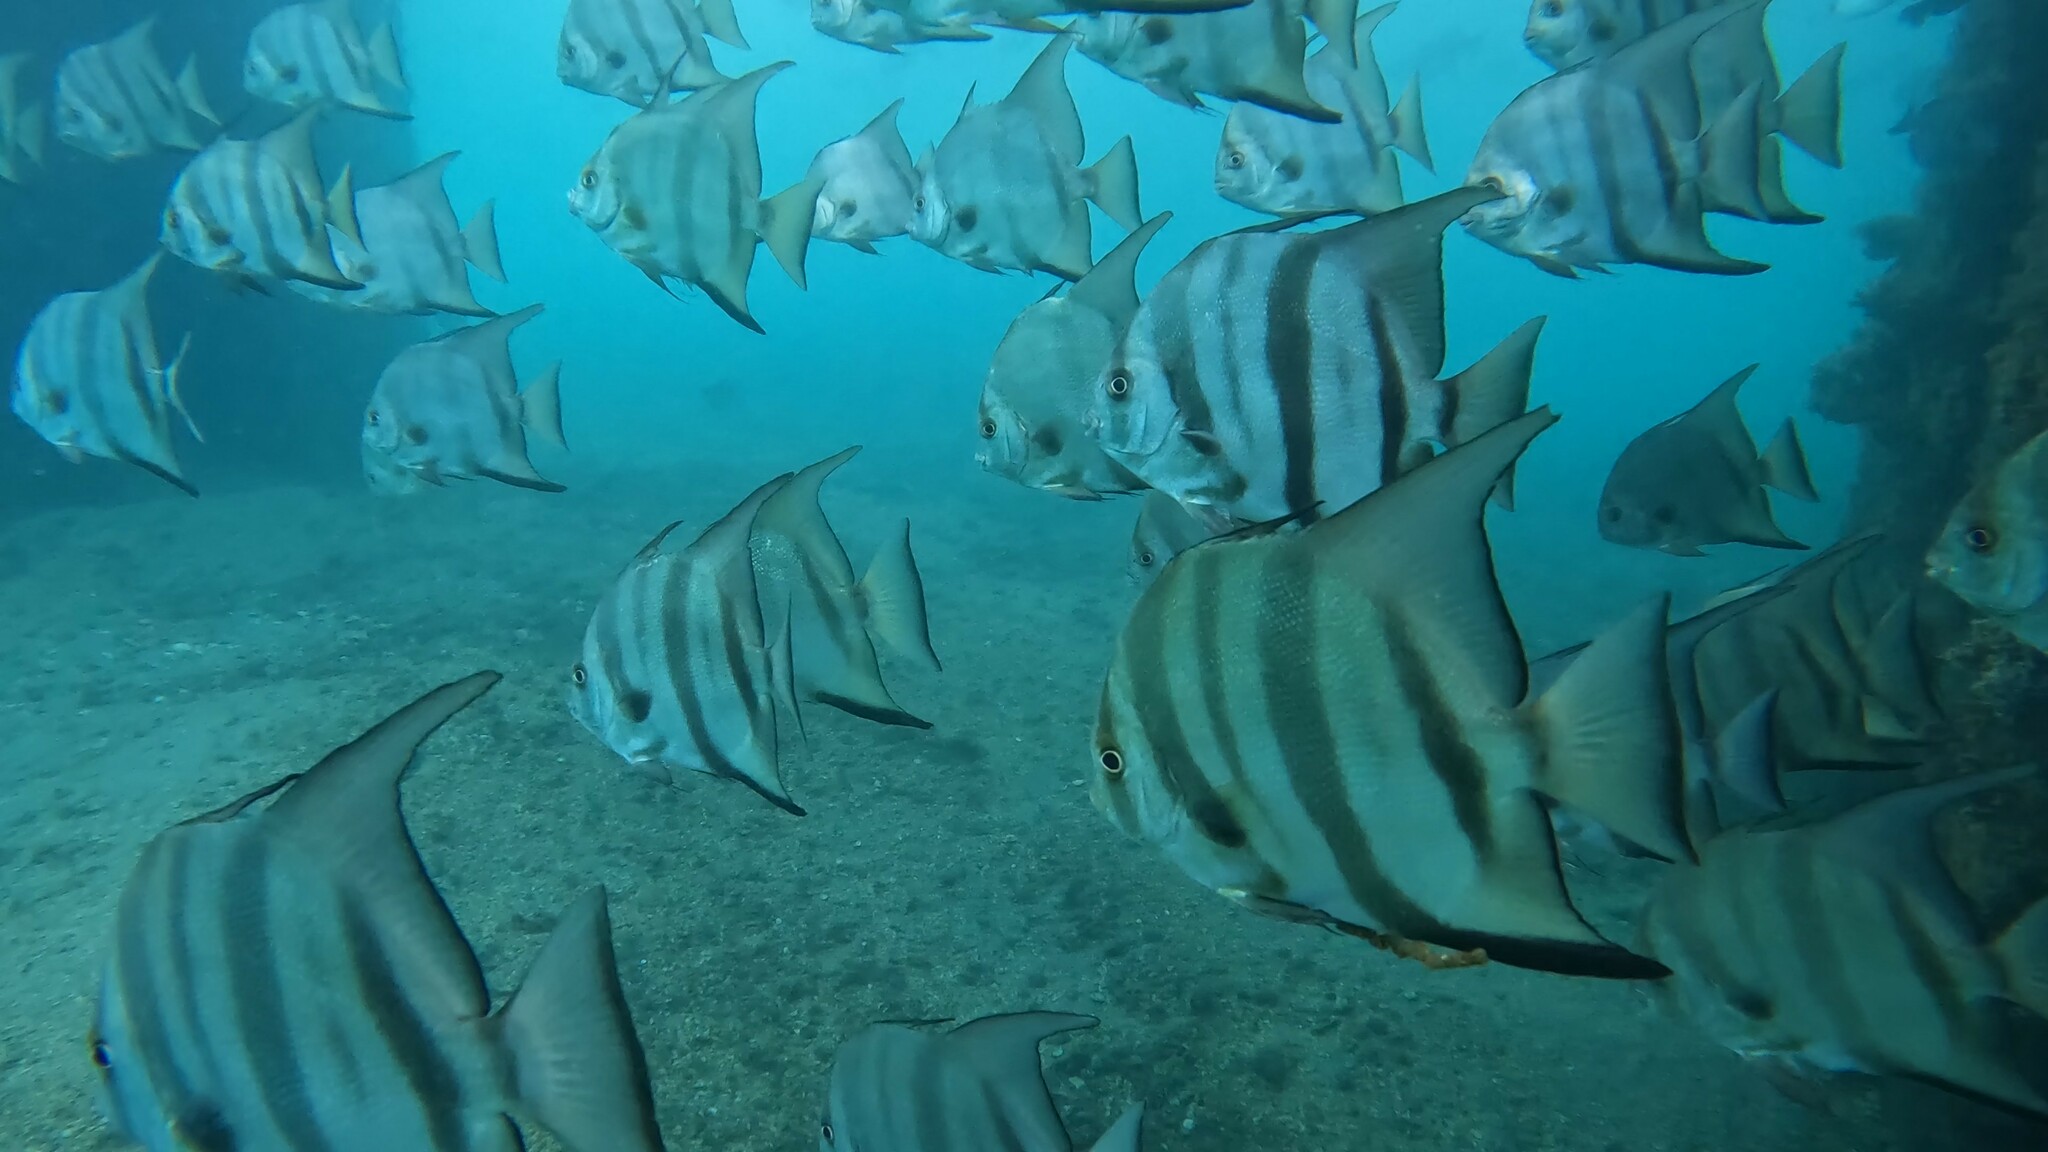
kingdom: Animalia
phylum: Chordata
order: Perciformes
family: Ephippidae
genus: Chaetodipterus
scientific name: Chaetodipterus faber
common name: Ocean cobbler
